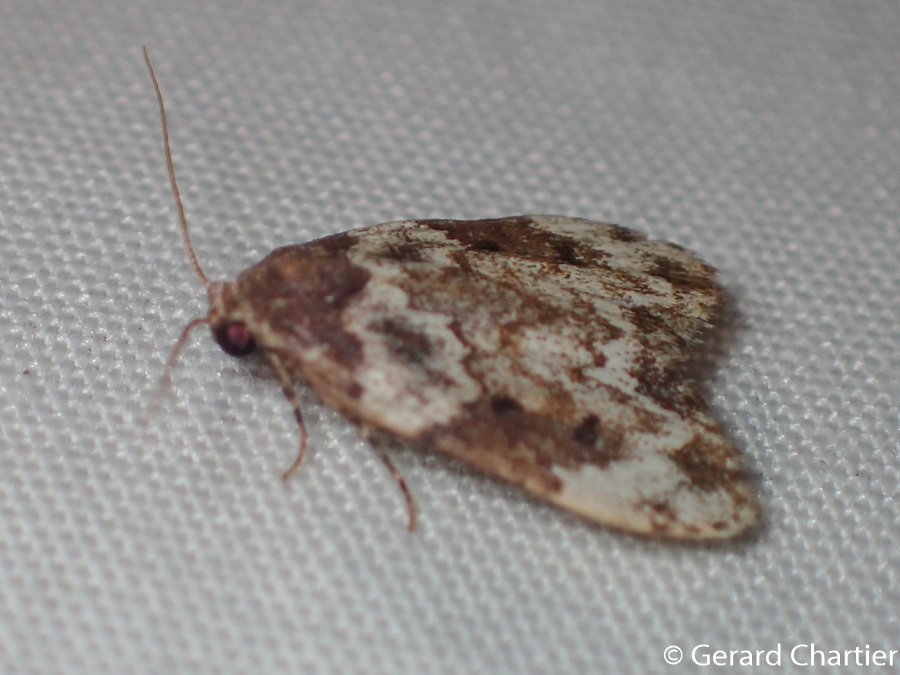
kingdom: Animalia
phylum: Arthropoda
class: Insecta
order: Lepidoptera
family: Erebidae
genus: Halone
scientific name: Halone ariadna
